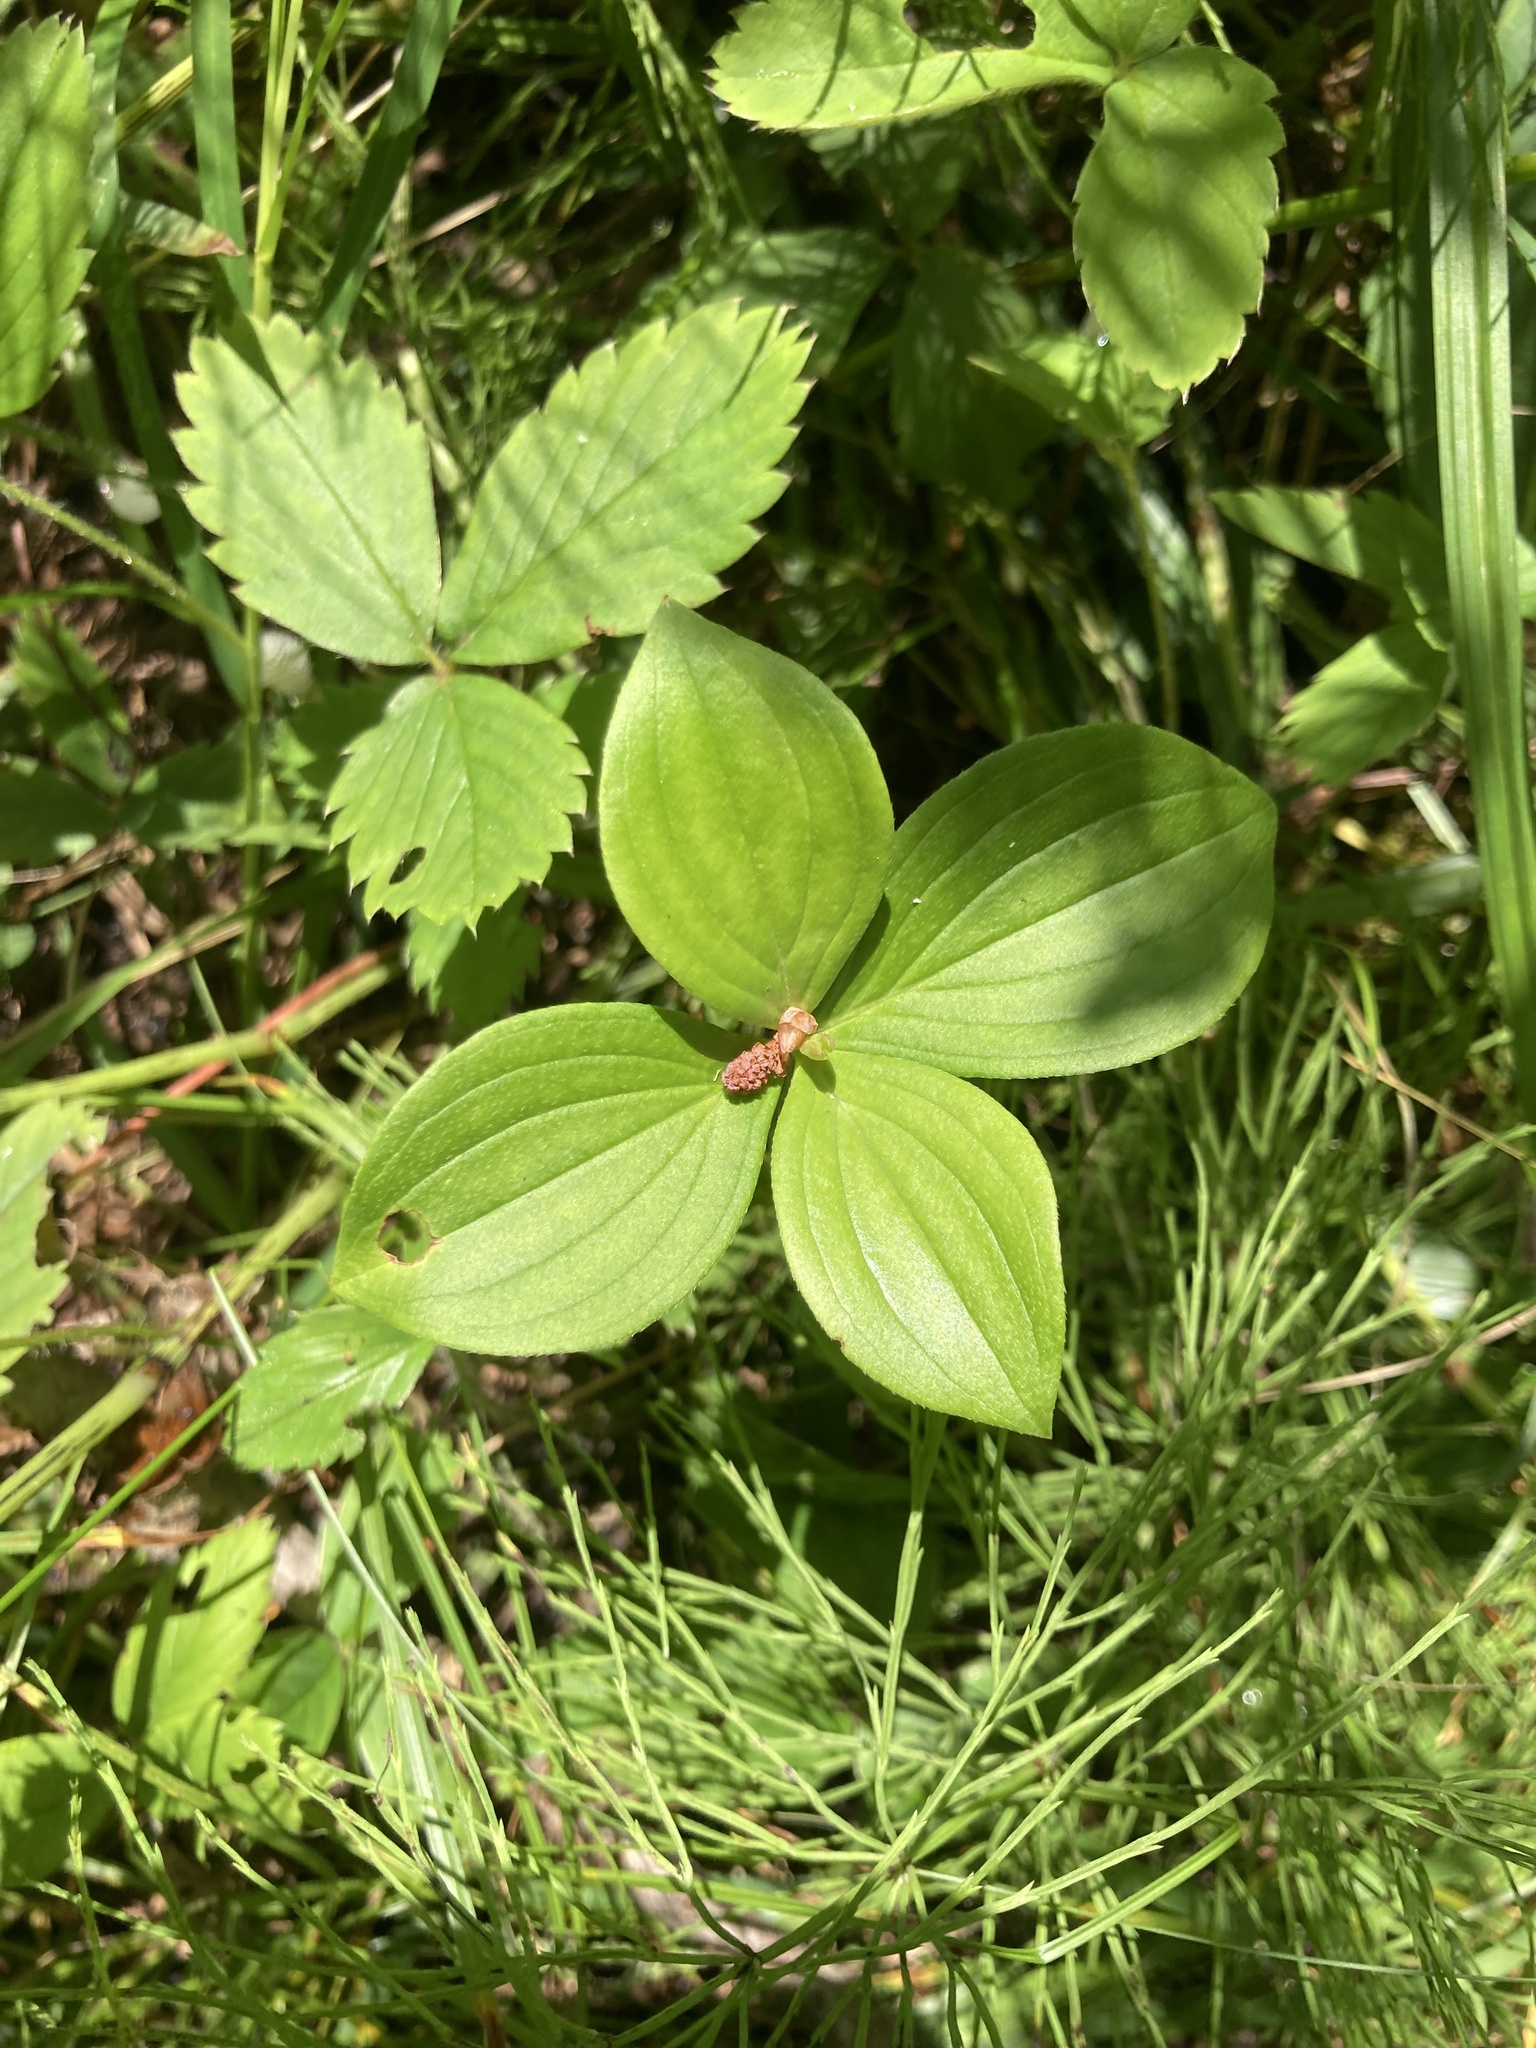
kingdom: Plantae
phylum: Tracheophyta
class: Magnoliopsida
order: Cornales
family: Cornaceae
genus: Cornus
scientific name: Cornus canadensis
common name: Creeping dogwood
